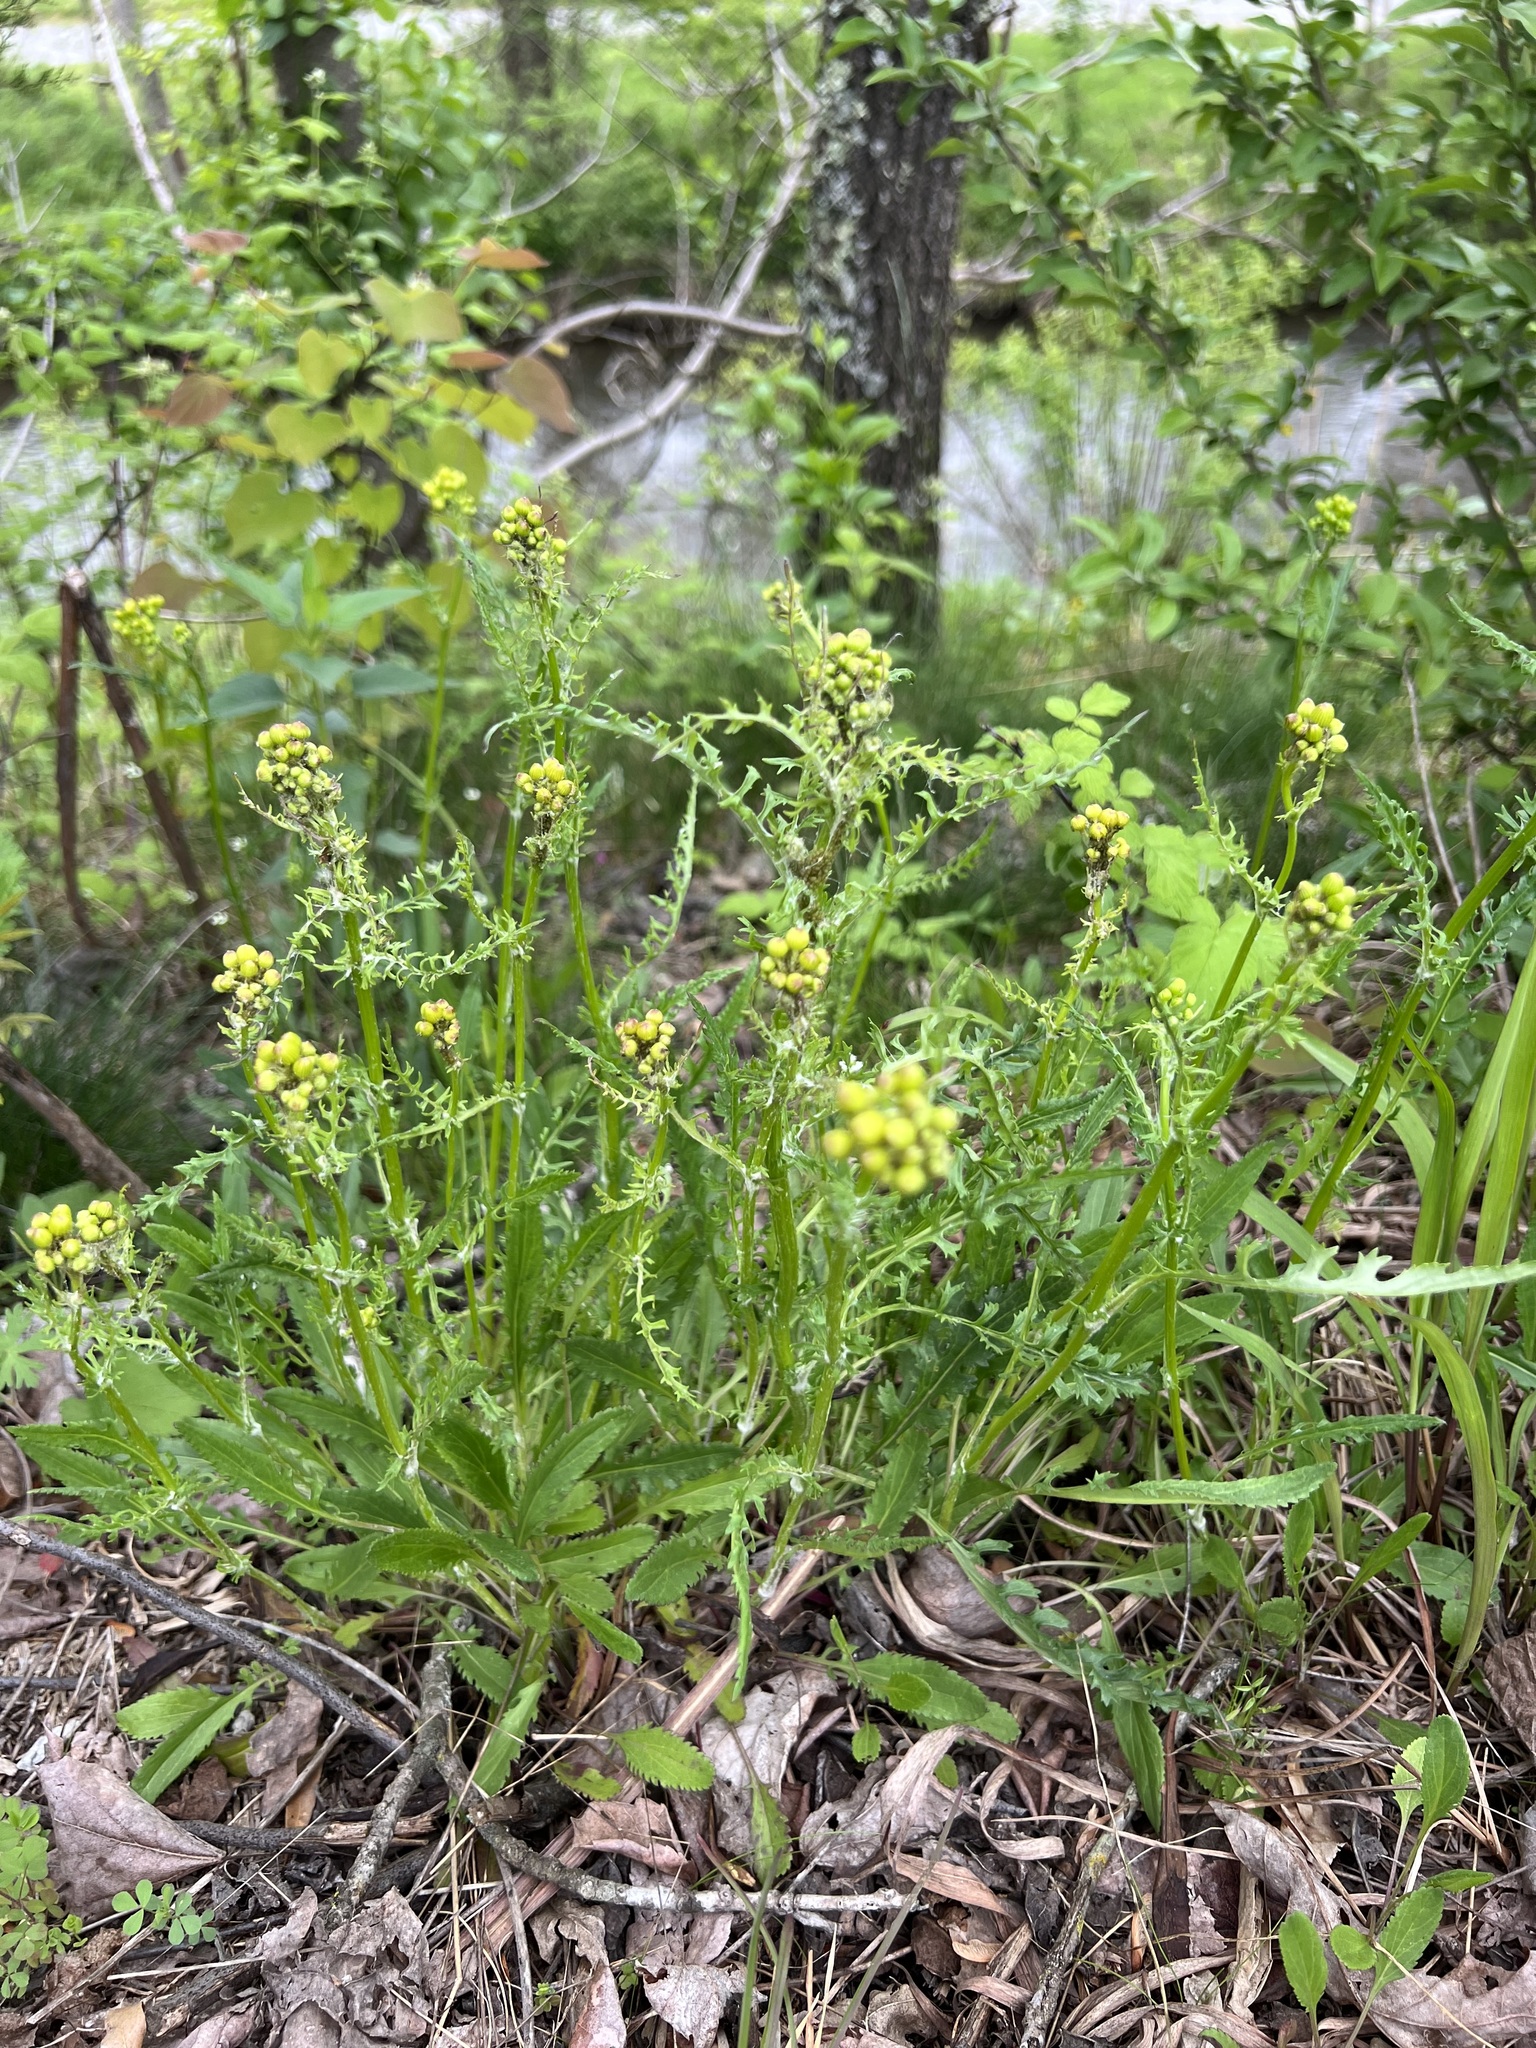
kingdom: Plantae
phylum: Tracheophyta
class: Magnoliopsida
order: Asterales
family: Asteraceae
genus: Packera
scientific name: Packera anonyma
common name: Small ragwort
